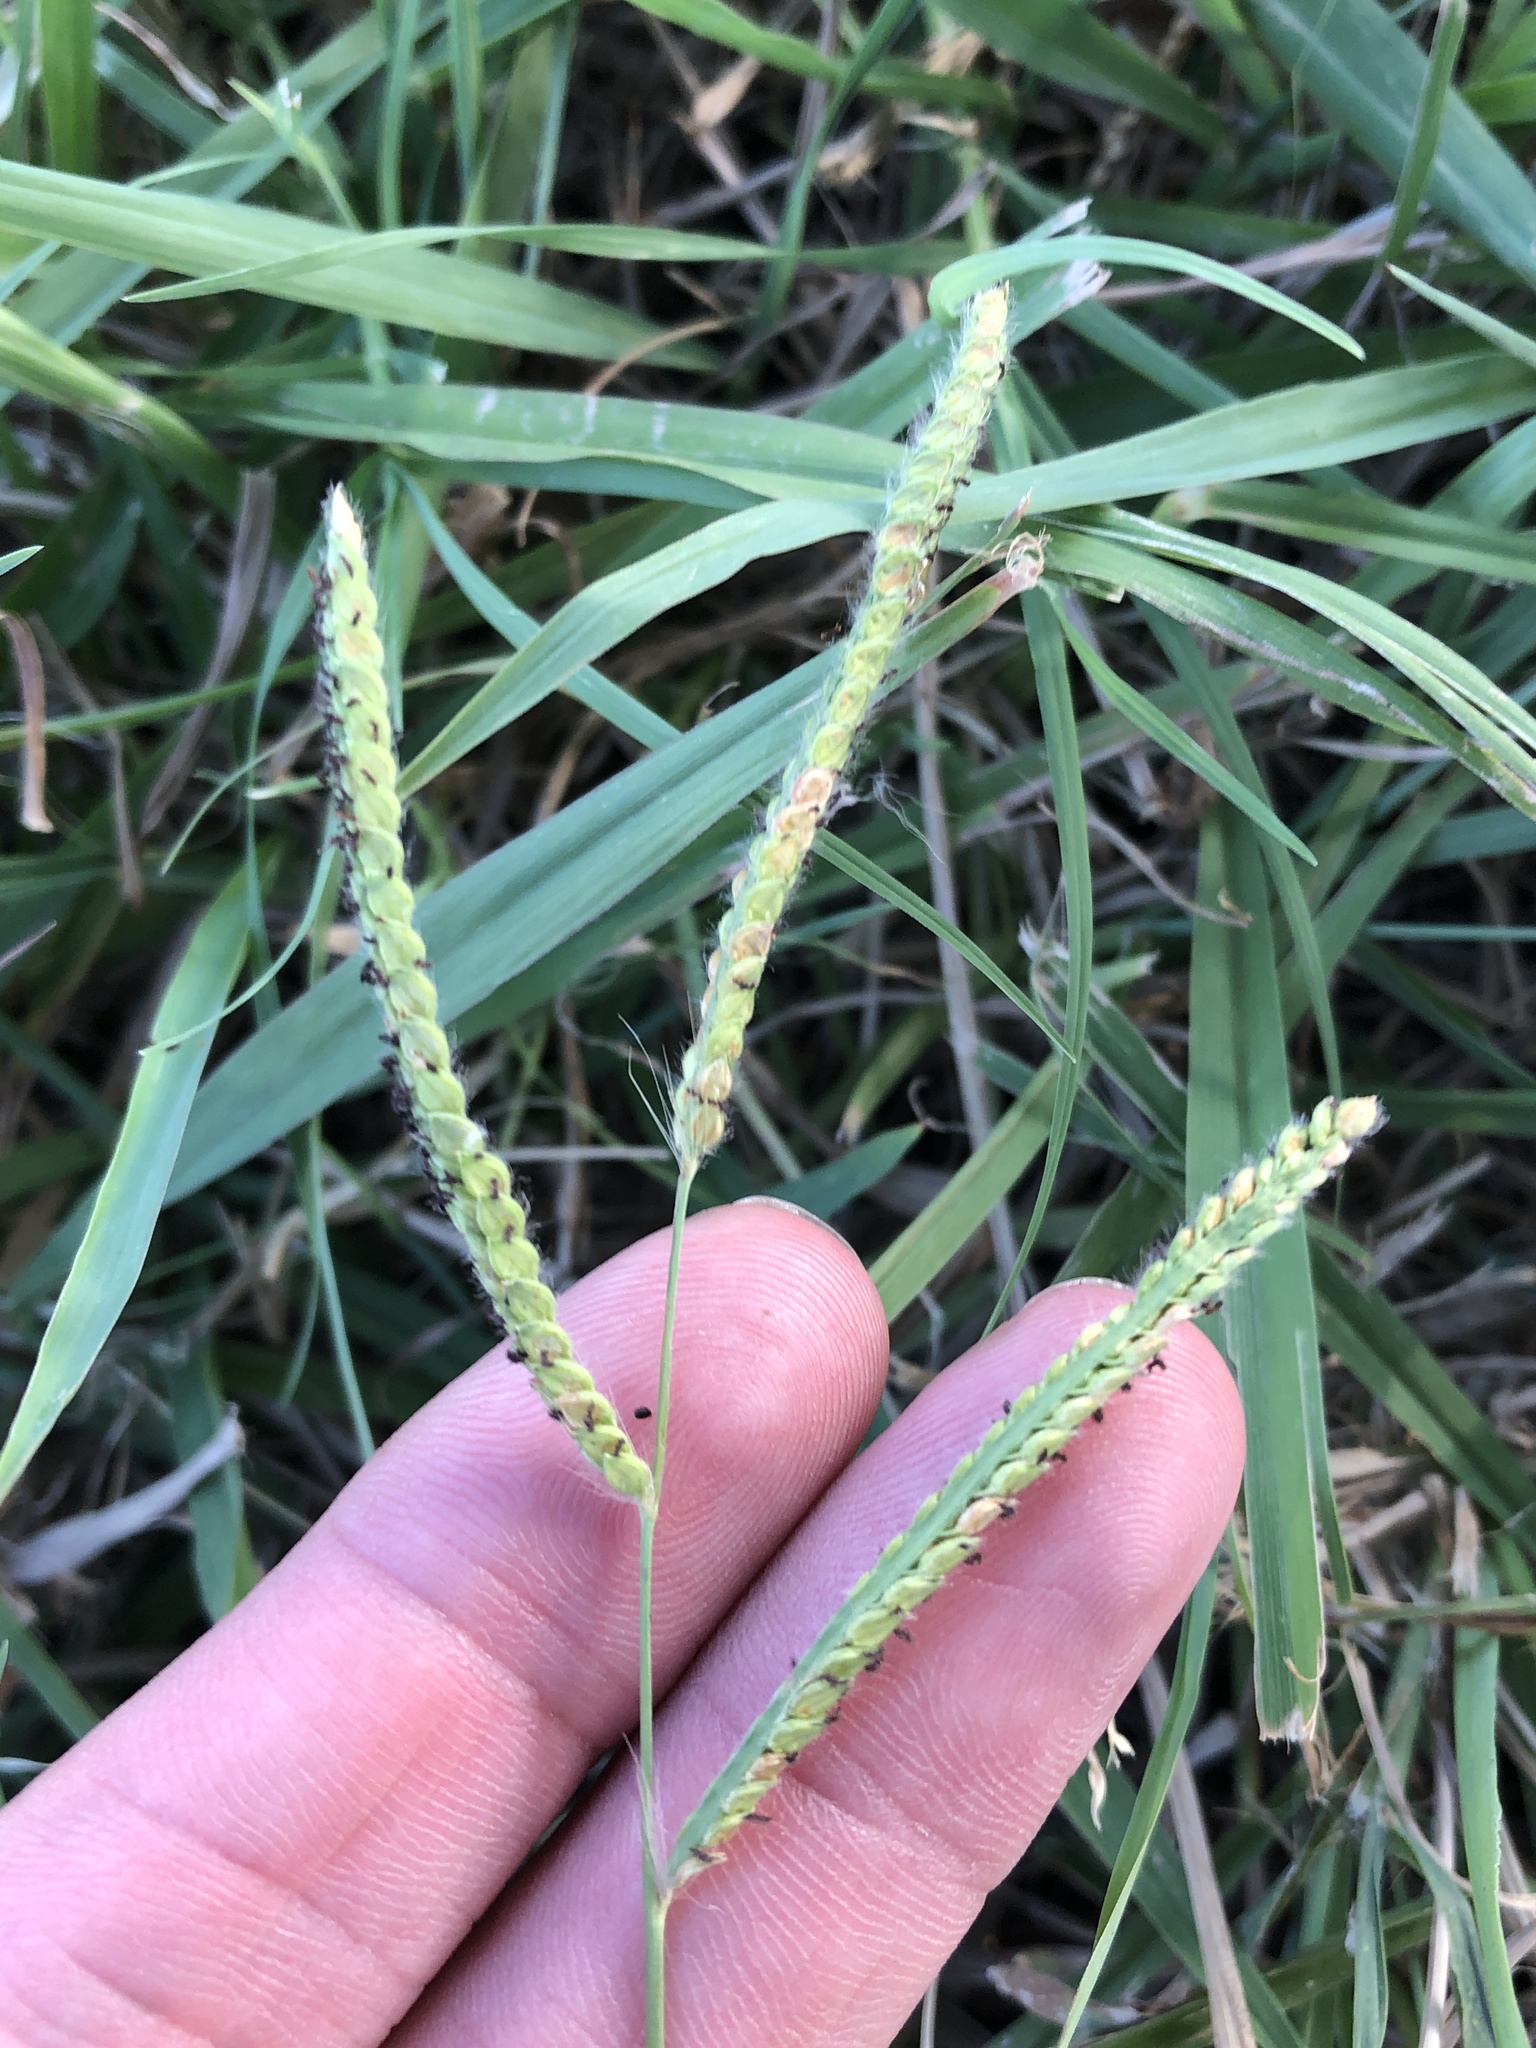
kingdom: Plantae
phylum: Tracheophyta
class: Liliopsida
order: Poales
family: Poaceae
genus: Paspalum
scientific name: Paspalum dilatatum
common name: Dallisgrass
